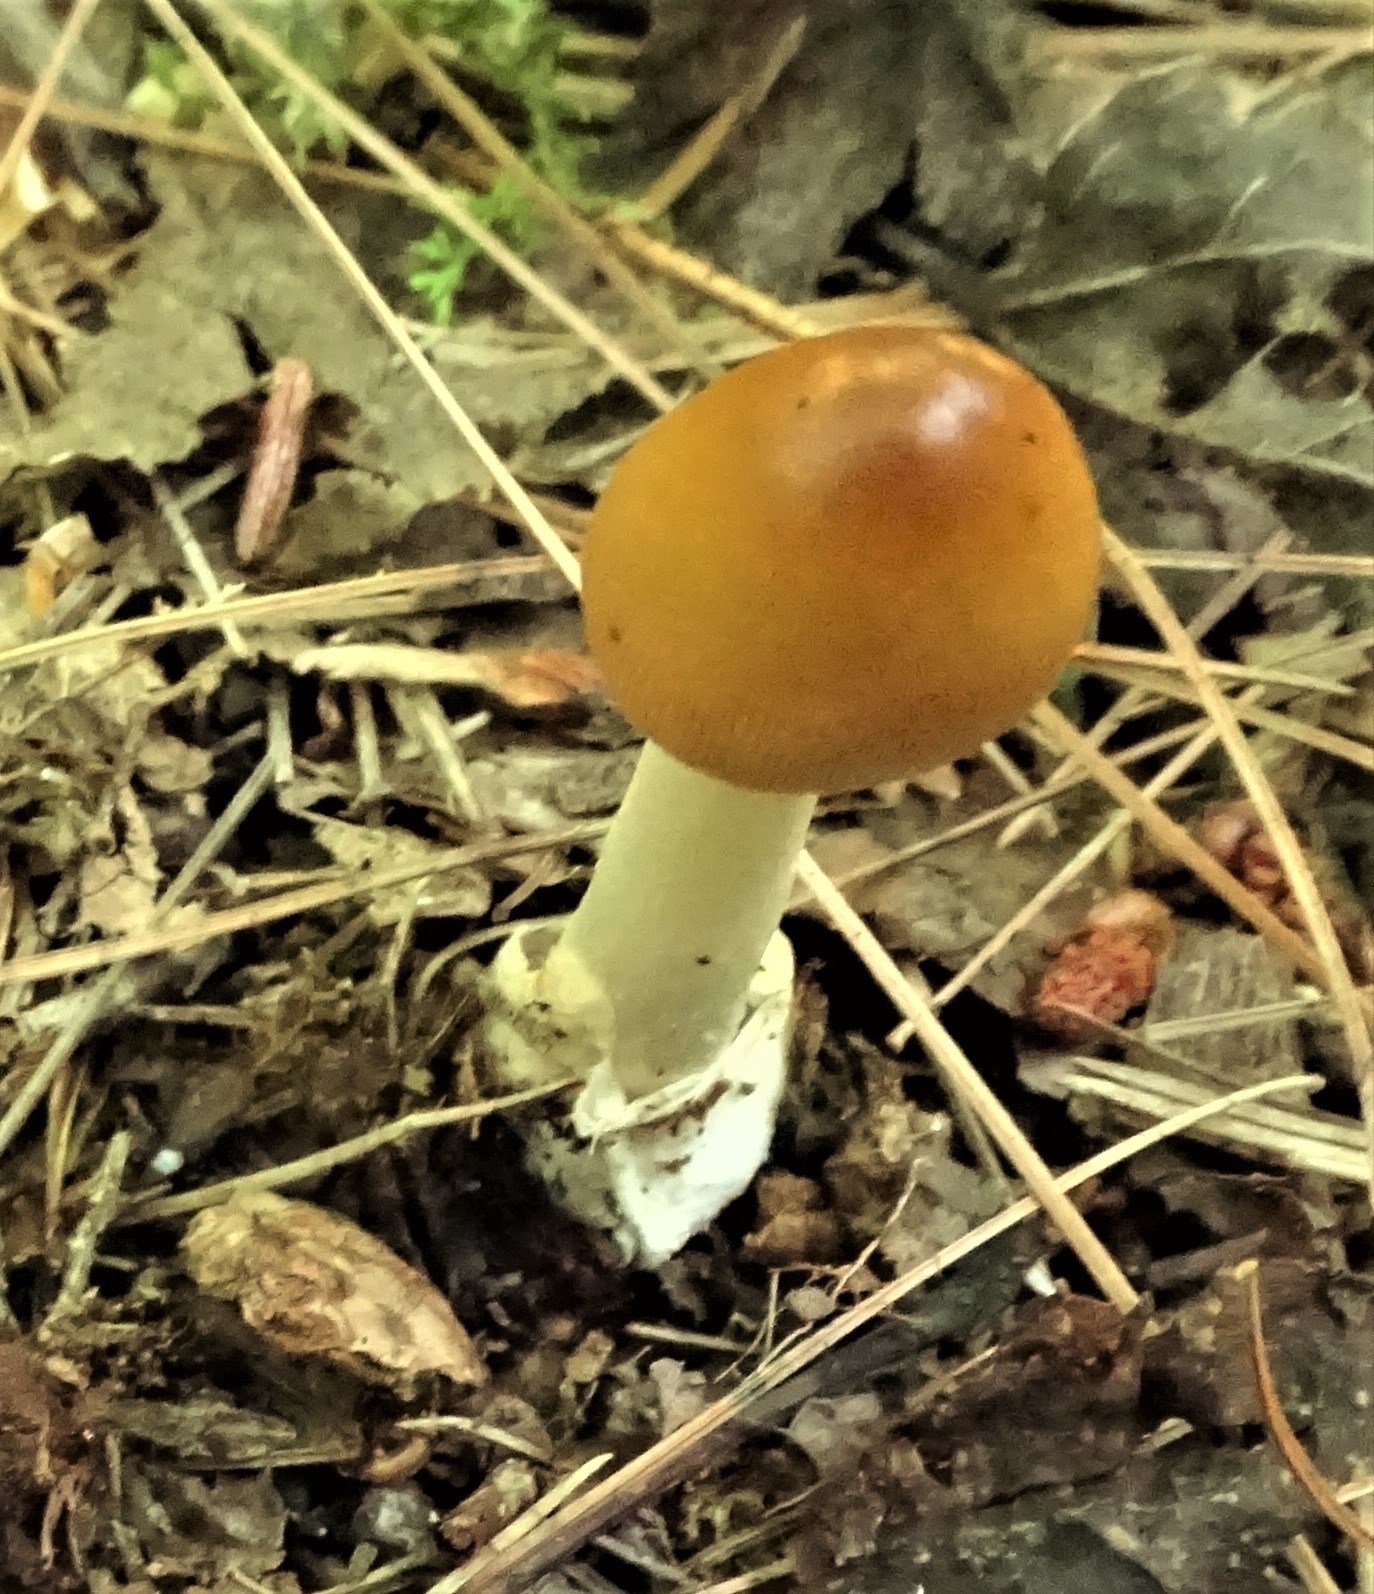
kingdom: Fungi
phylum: Basidiomycota
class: Agaricomycetes
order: Agaricales
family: Amanitaceae
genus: Amanita
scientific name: Amanita fulva
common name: Tawny grisette
